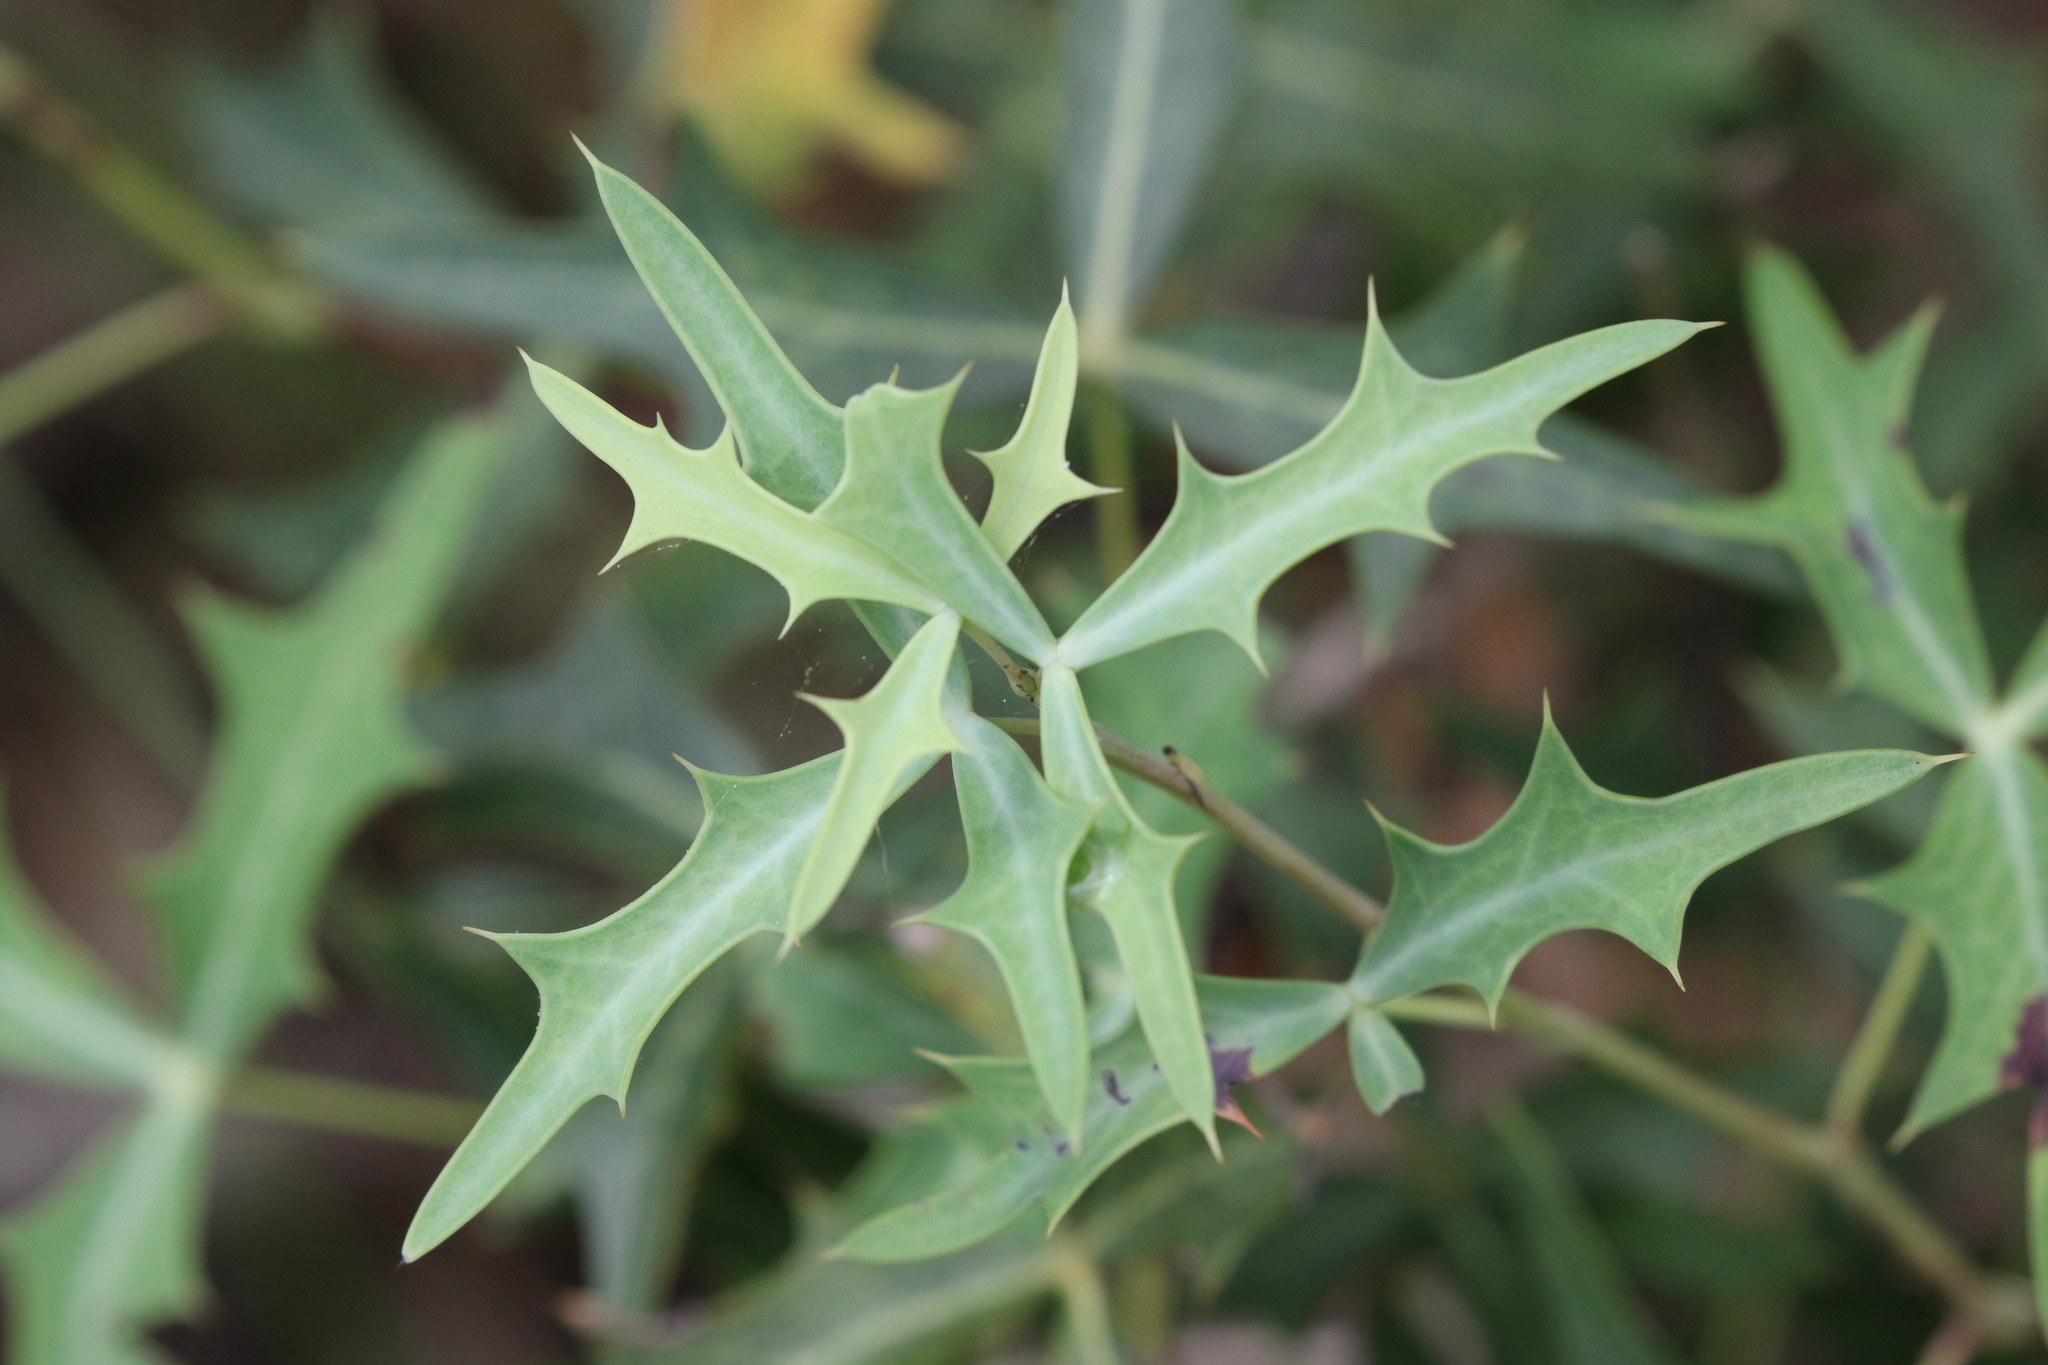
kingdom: Plantae
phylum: Tracheophyta
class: Magnoliopsida
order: Ranunculales
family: Berberidaceae
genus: Alloberberis
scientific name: Alloberberis trifoliolata
